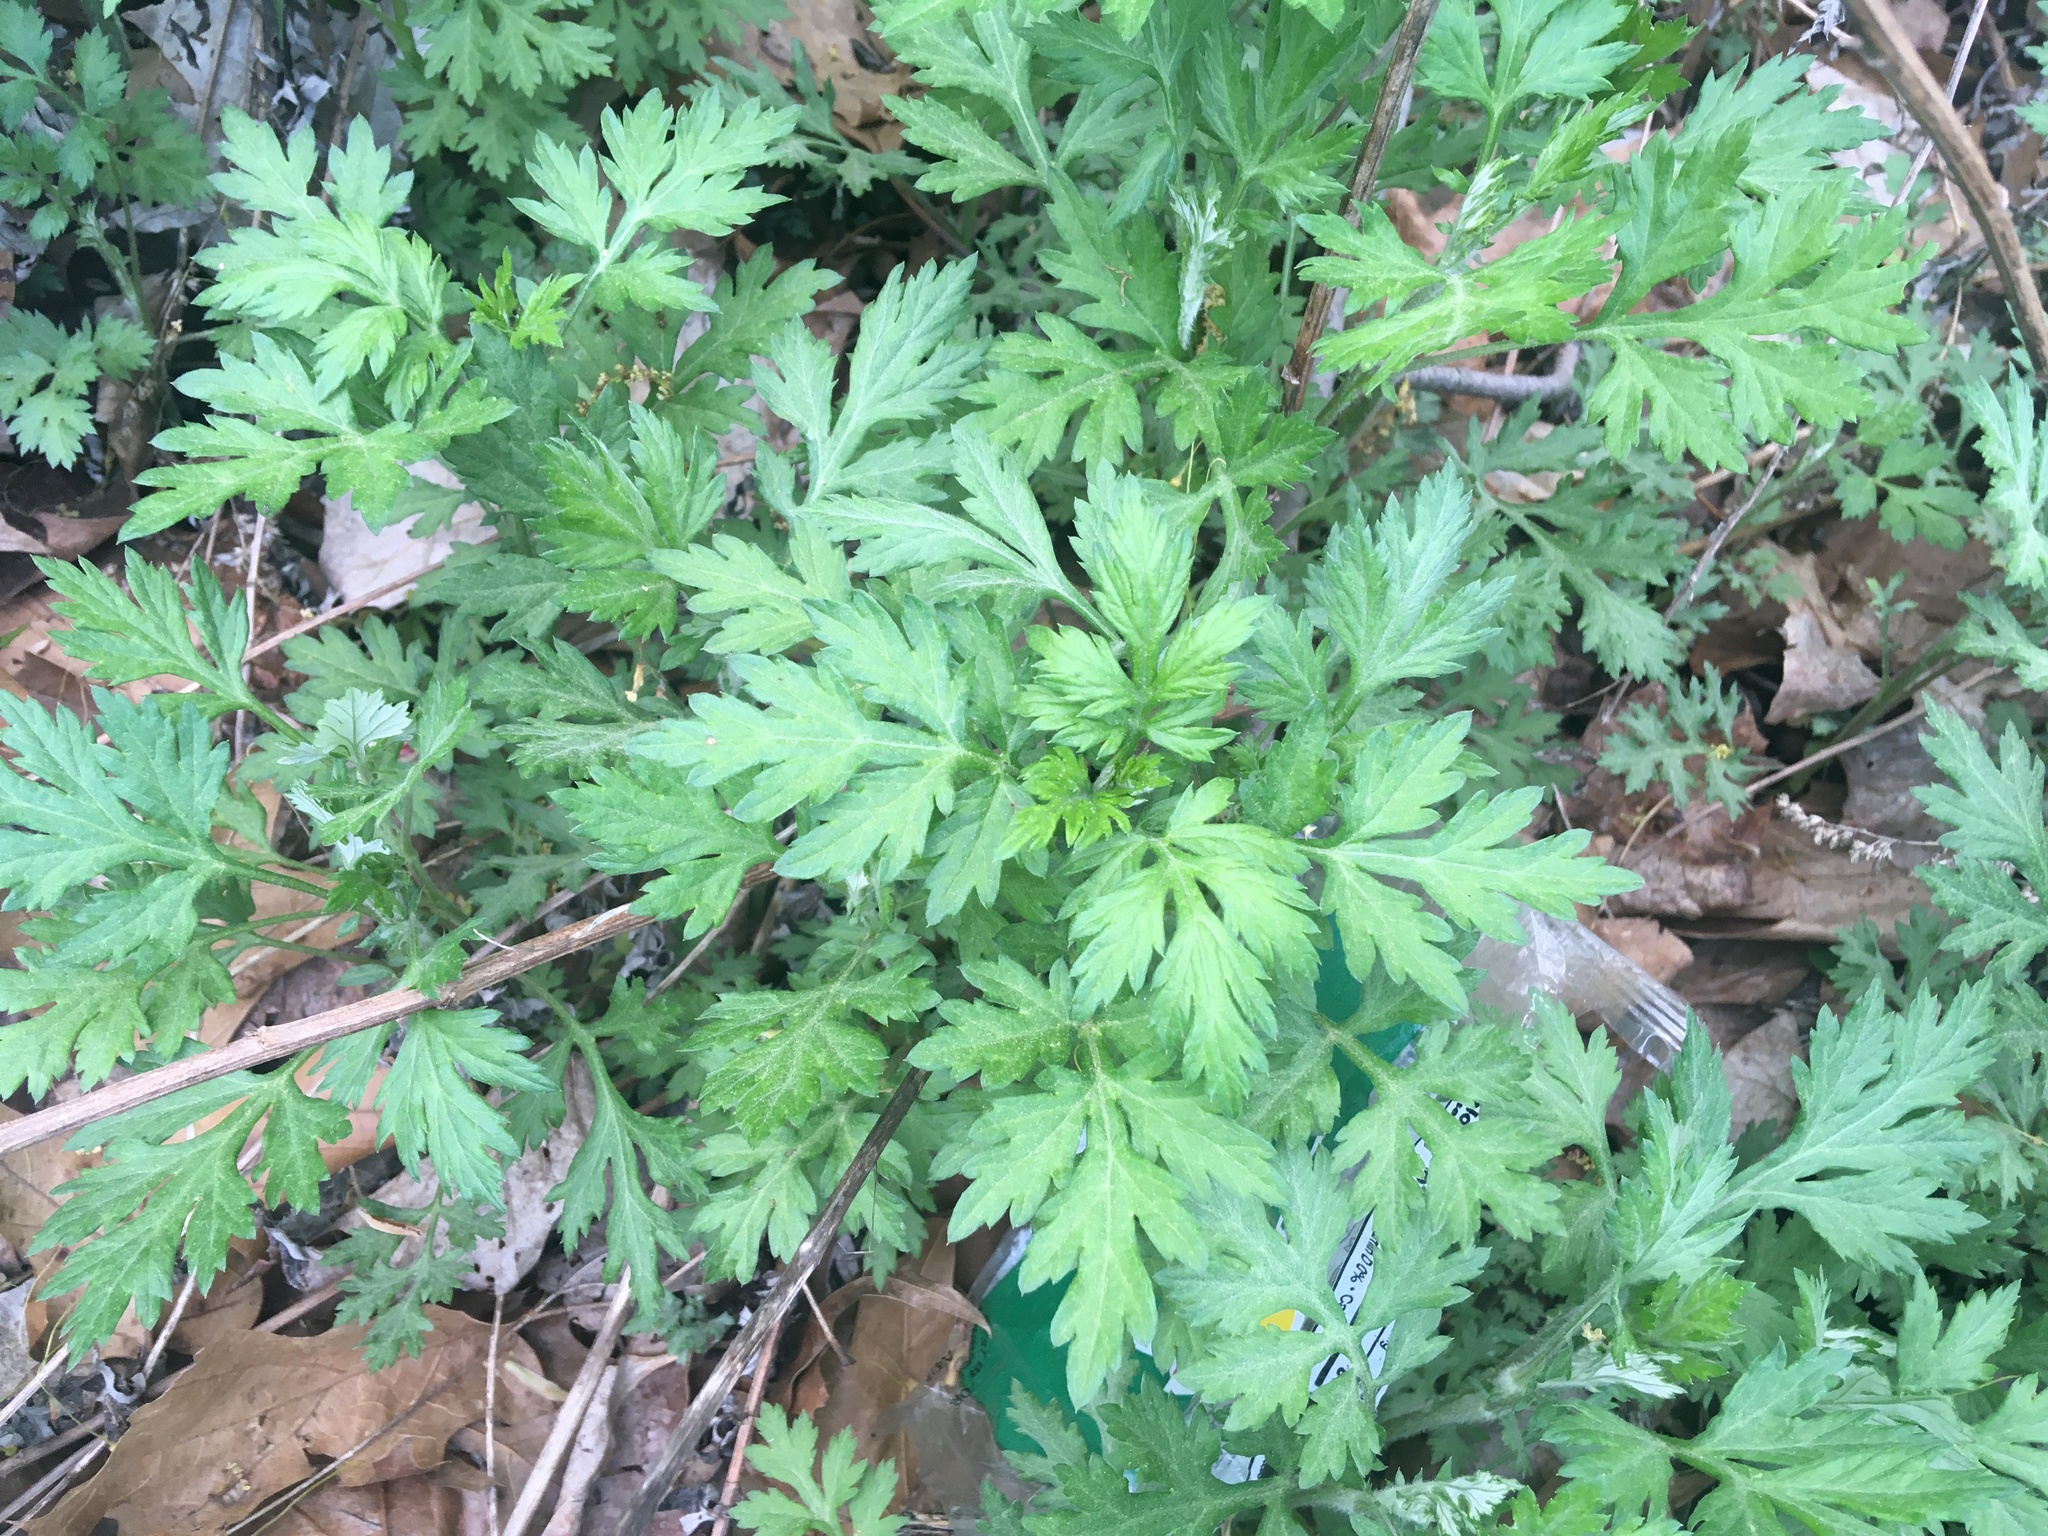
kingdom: Plantae
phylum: Tracheophyta
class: Magnoliopsida
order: Asterales
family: Asteraceae
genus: Artemisia
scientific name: Artemisia vulgaris
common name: Mugwort
